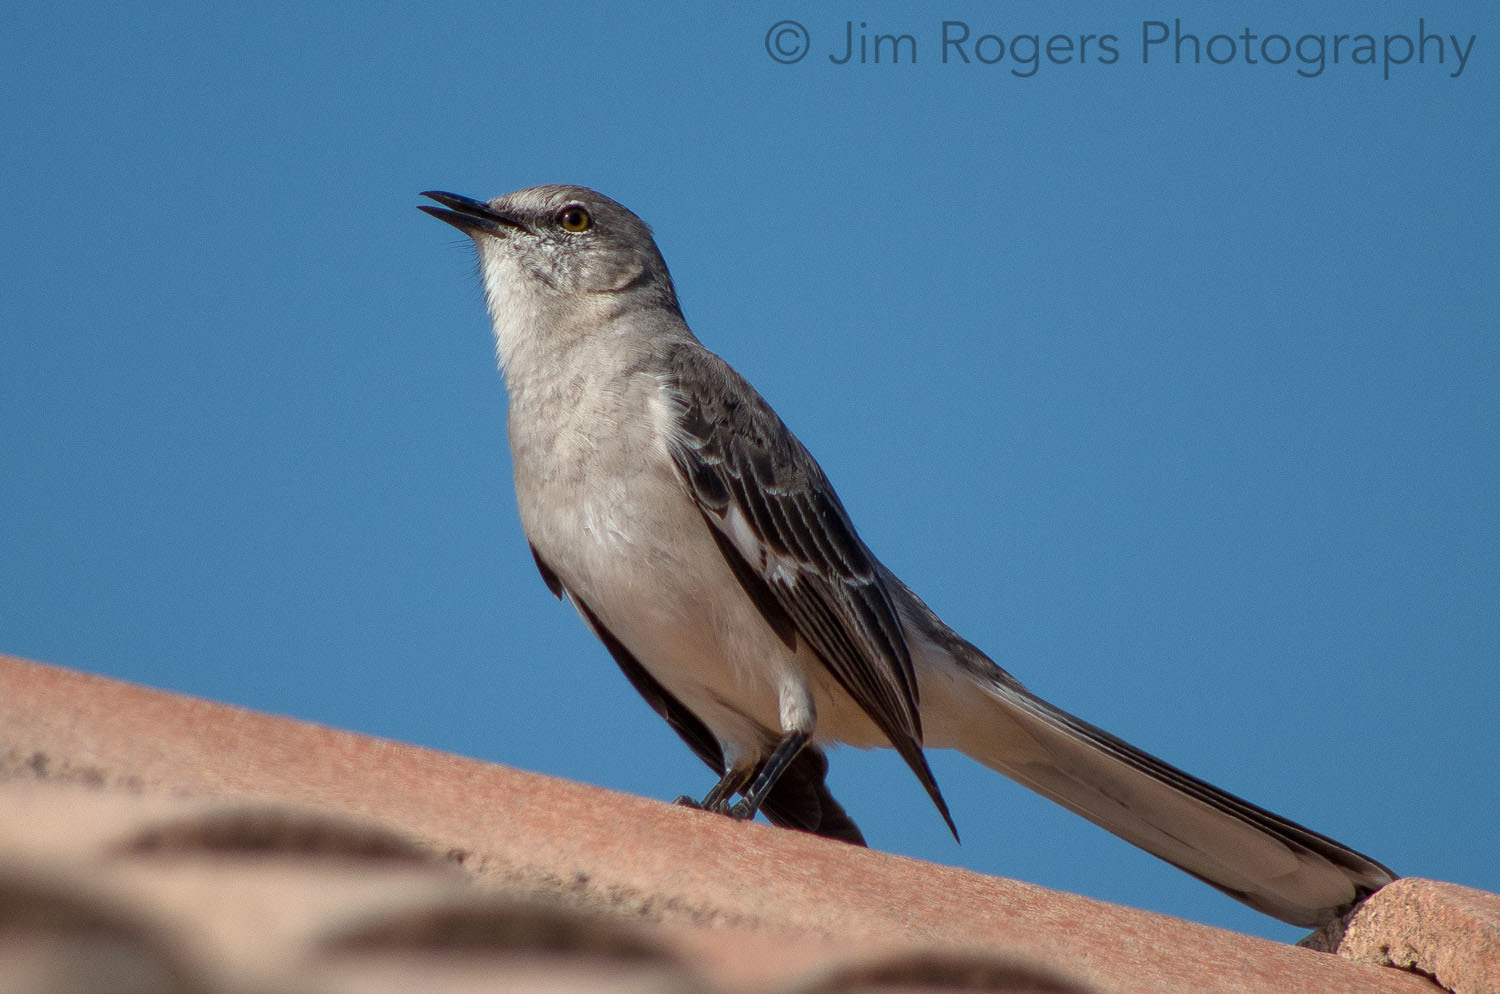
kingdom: Animalia
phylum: Chordata
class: Aves
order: Passeriformes
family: Mimidae
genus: Mimus
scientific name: Mimus polyglottos
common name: Northern mockingbird
